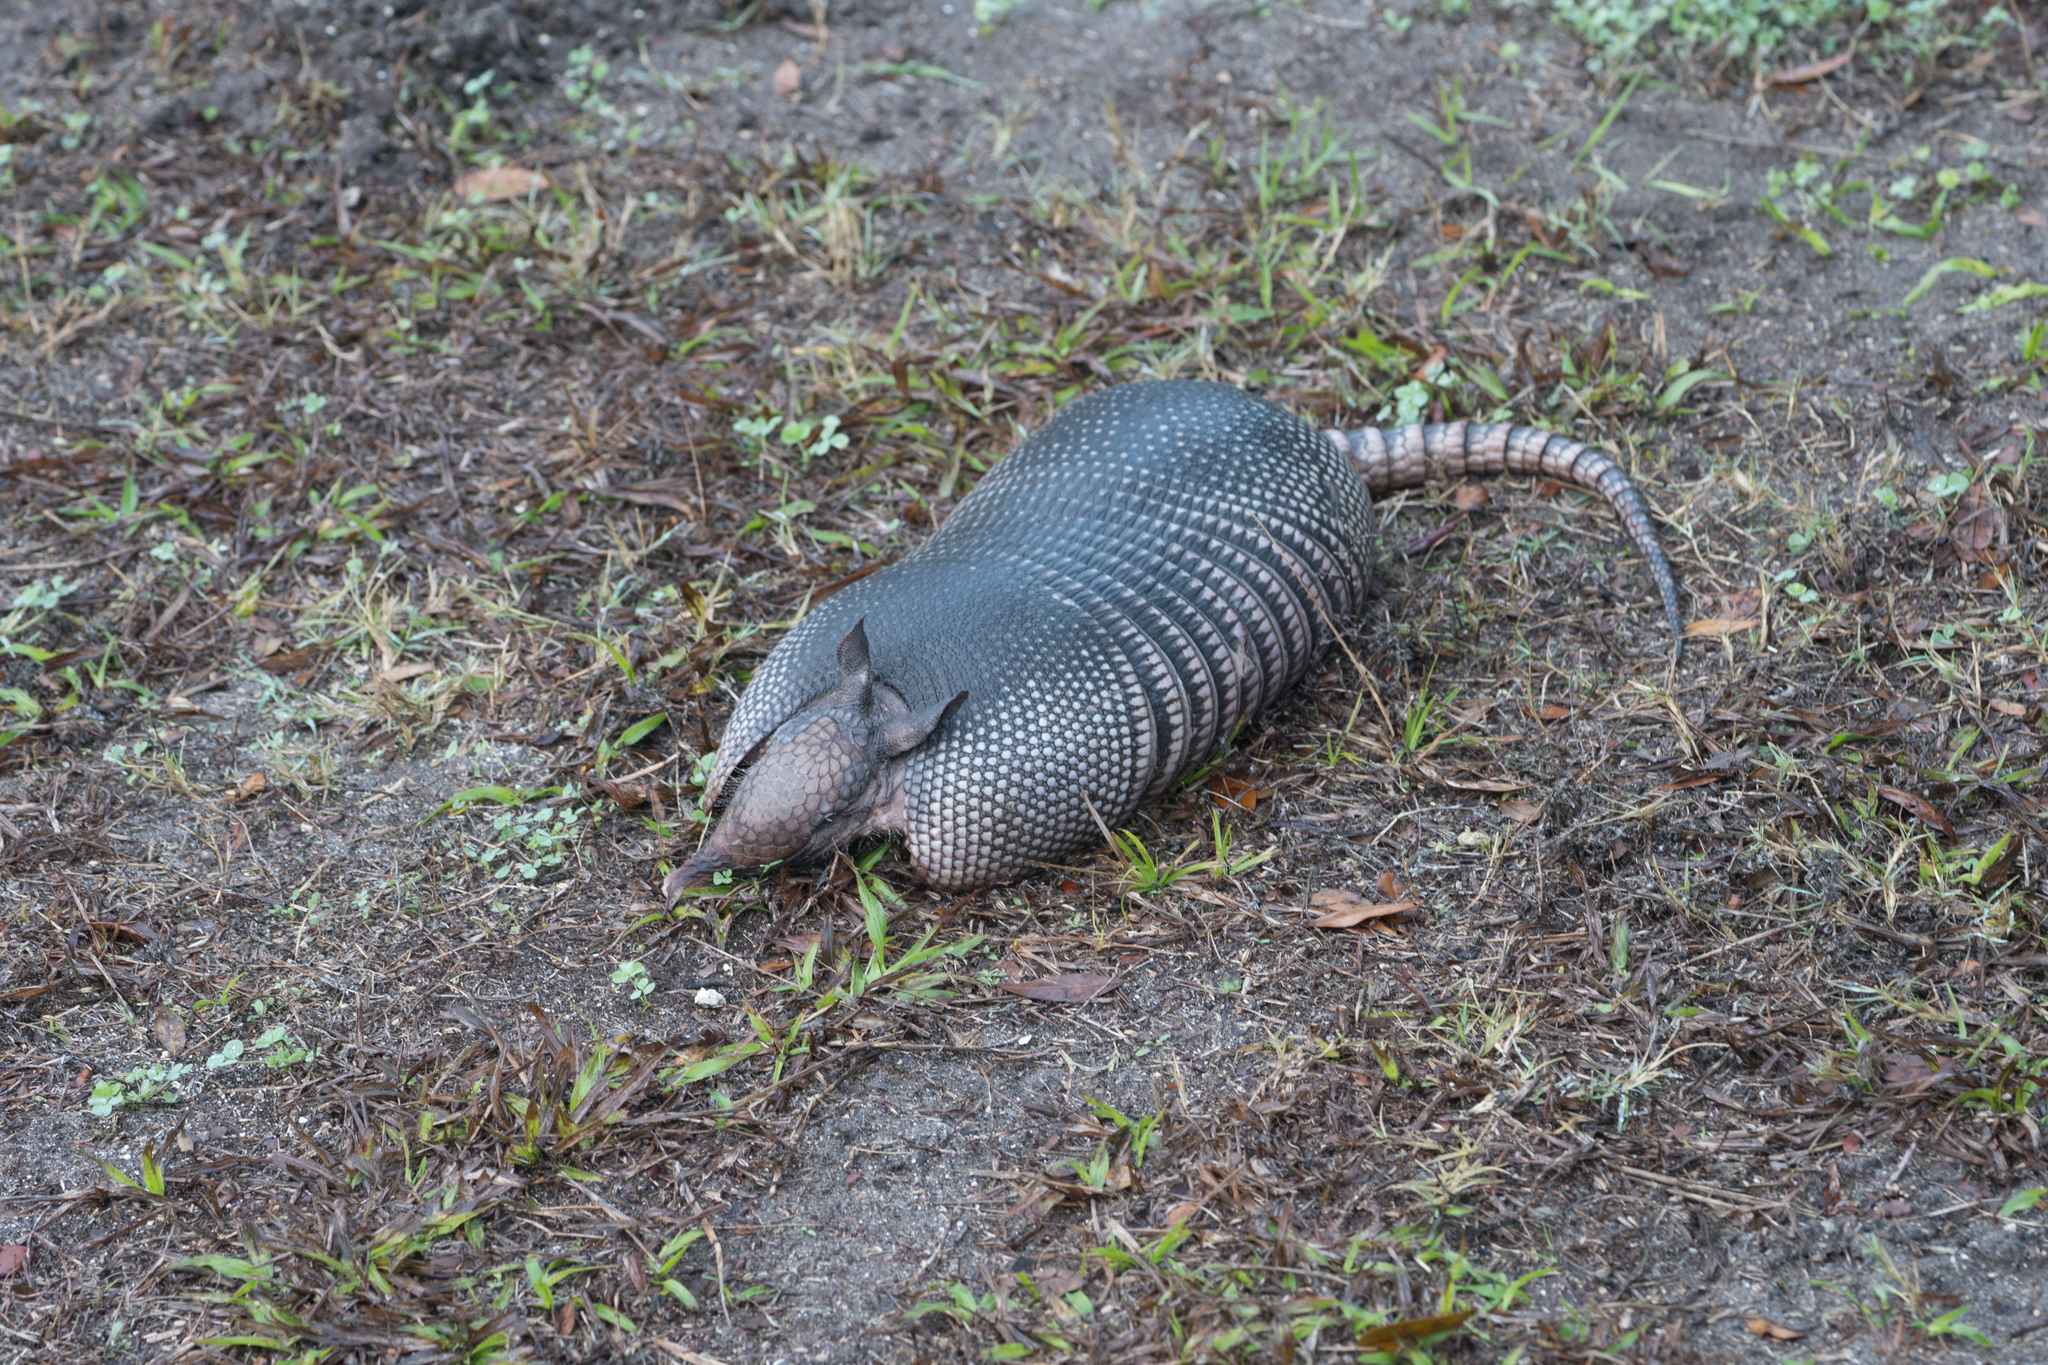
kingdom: Animalia
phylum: Chordata
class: Mammalia
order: Cingulata
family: Dasypodidae
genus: Dasypus
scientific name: Dasypus novemcinctus
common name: Nine-banded armadillo
